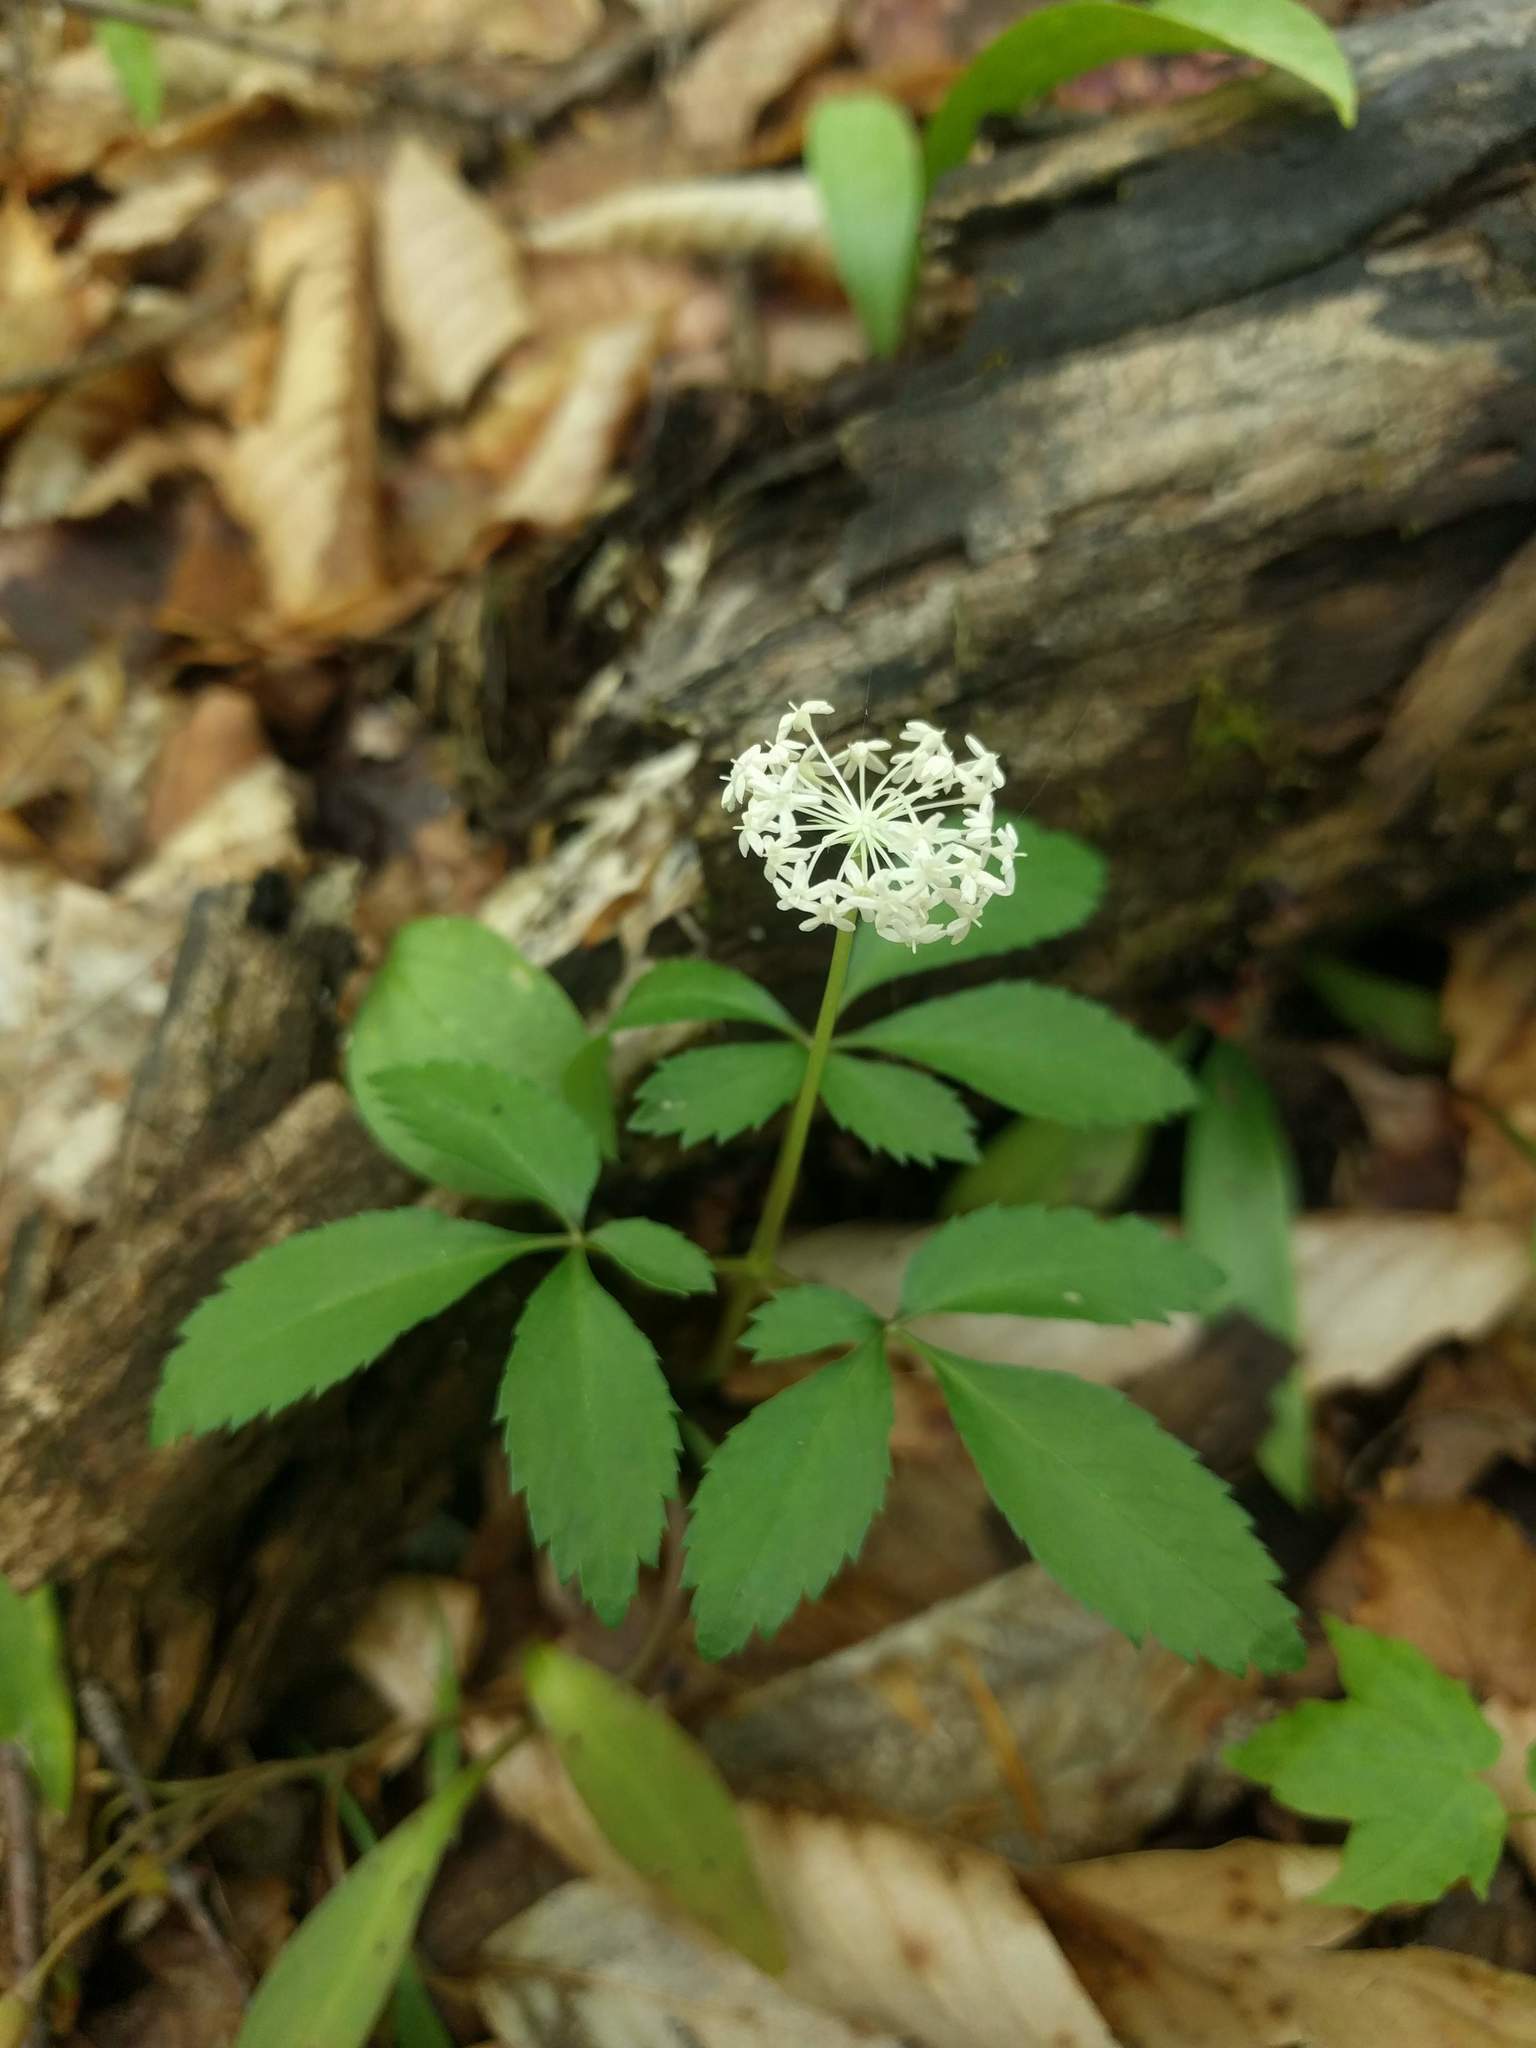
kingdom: Plantae
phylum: Tracheophyta
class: Magnoliopsida
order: Apiales
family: Araliaceae
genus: Panax
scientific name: Panax trifolius
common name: Dwarf ginseng
